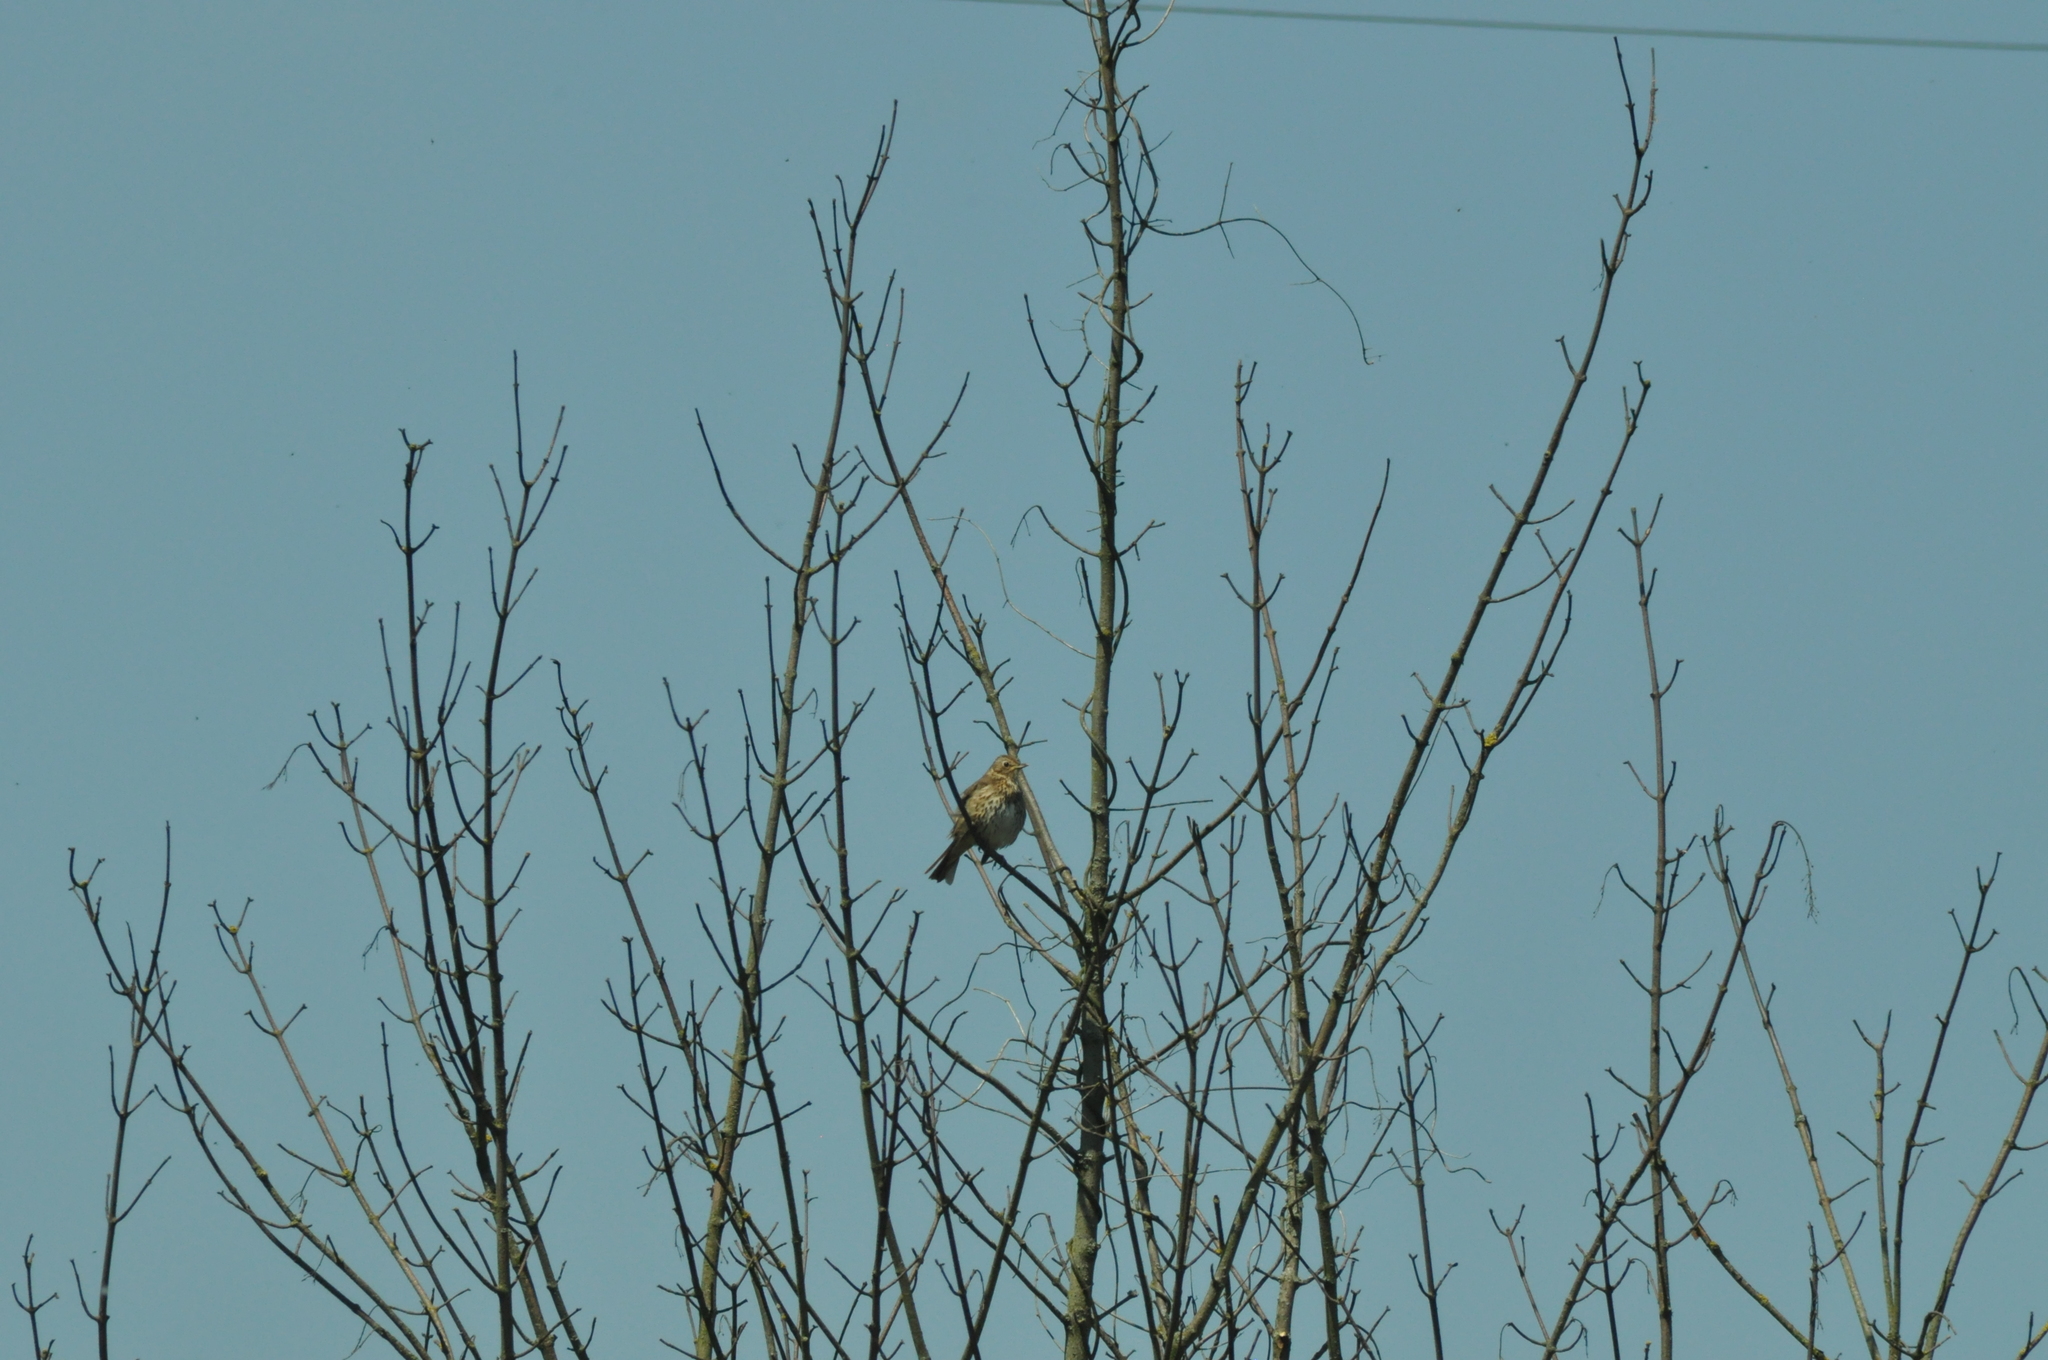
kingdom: Animalia
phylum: Chordata
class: Aves
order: Passeriformes
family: Turdidae
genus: Turdus
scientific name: Turdus philomelos
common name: Song thrush
